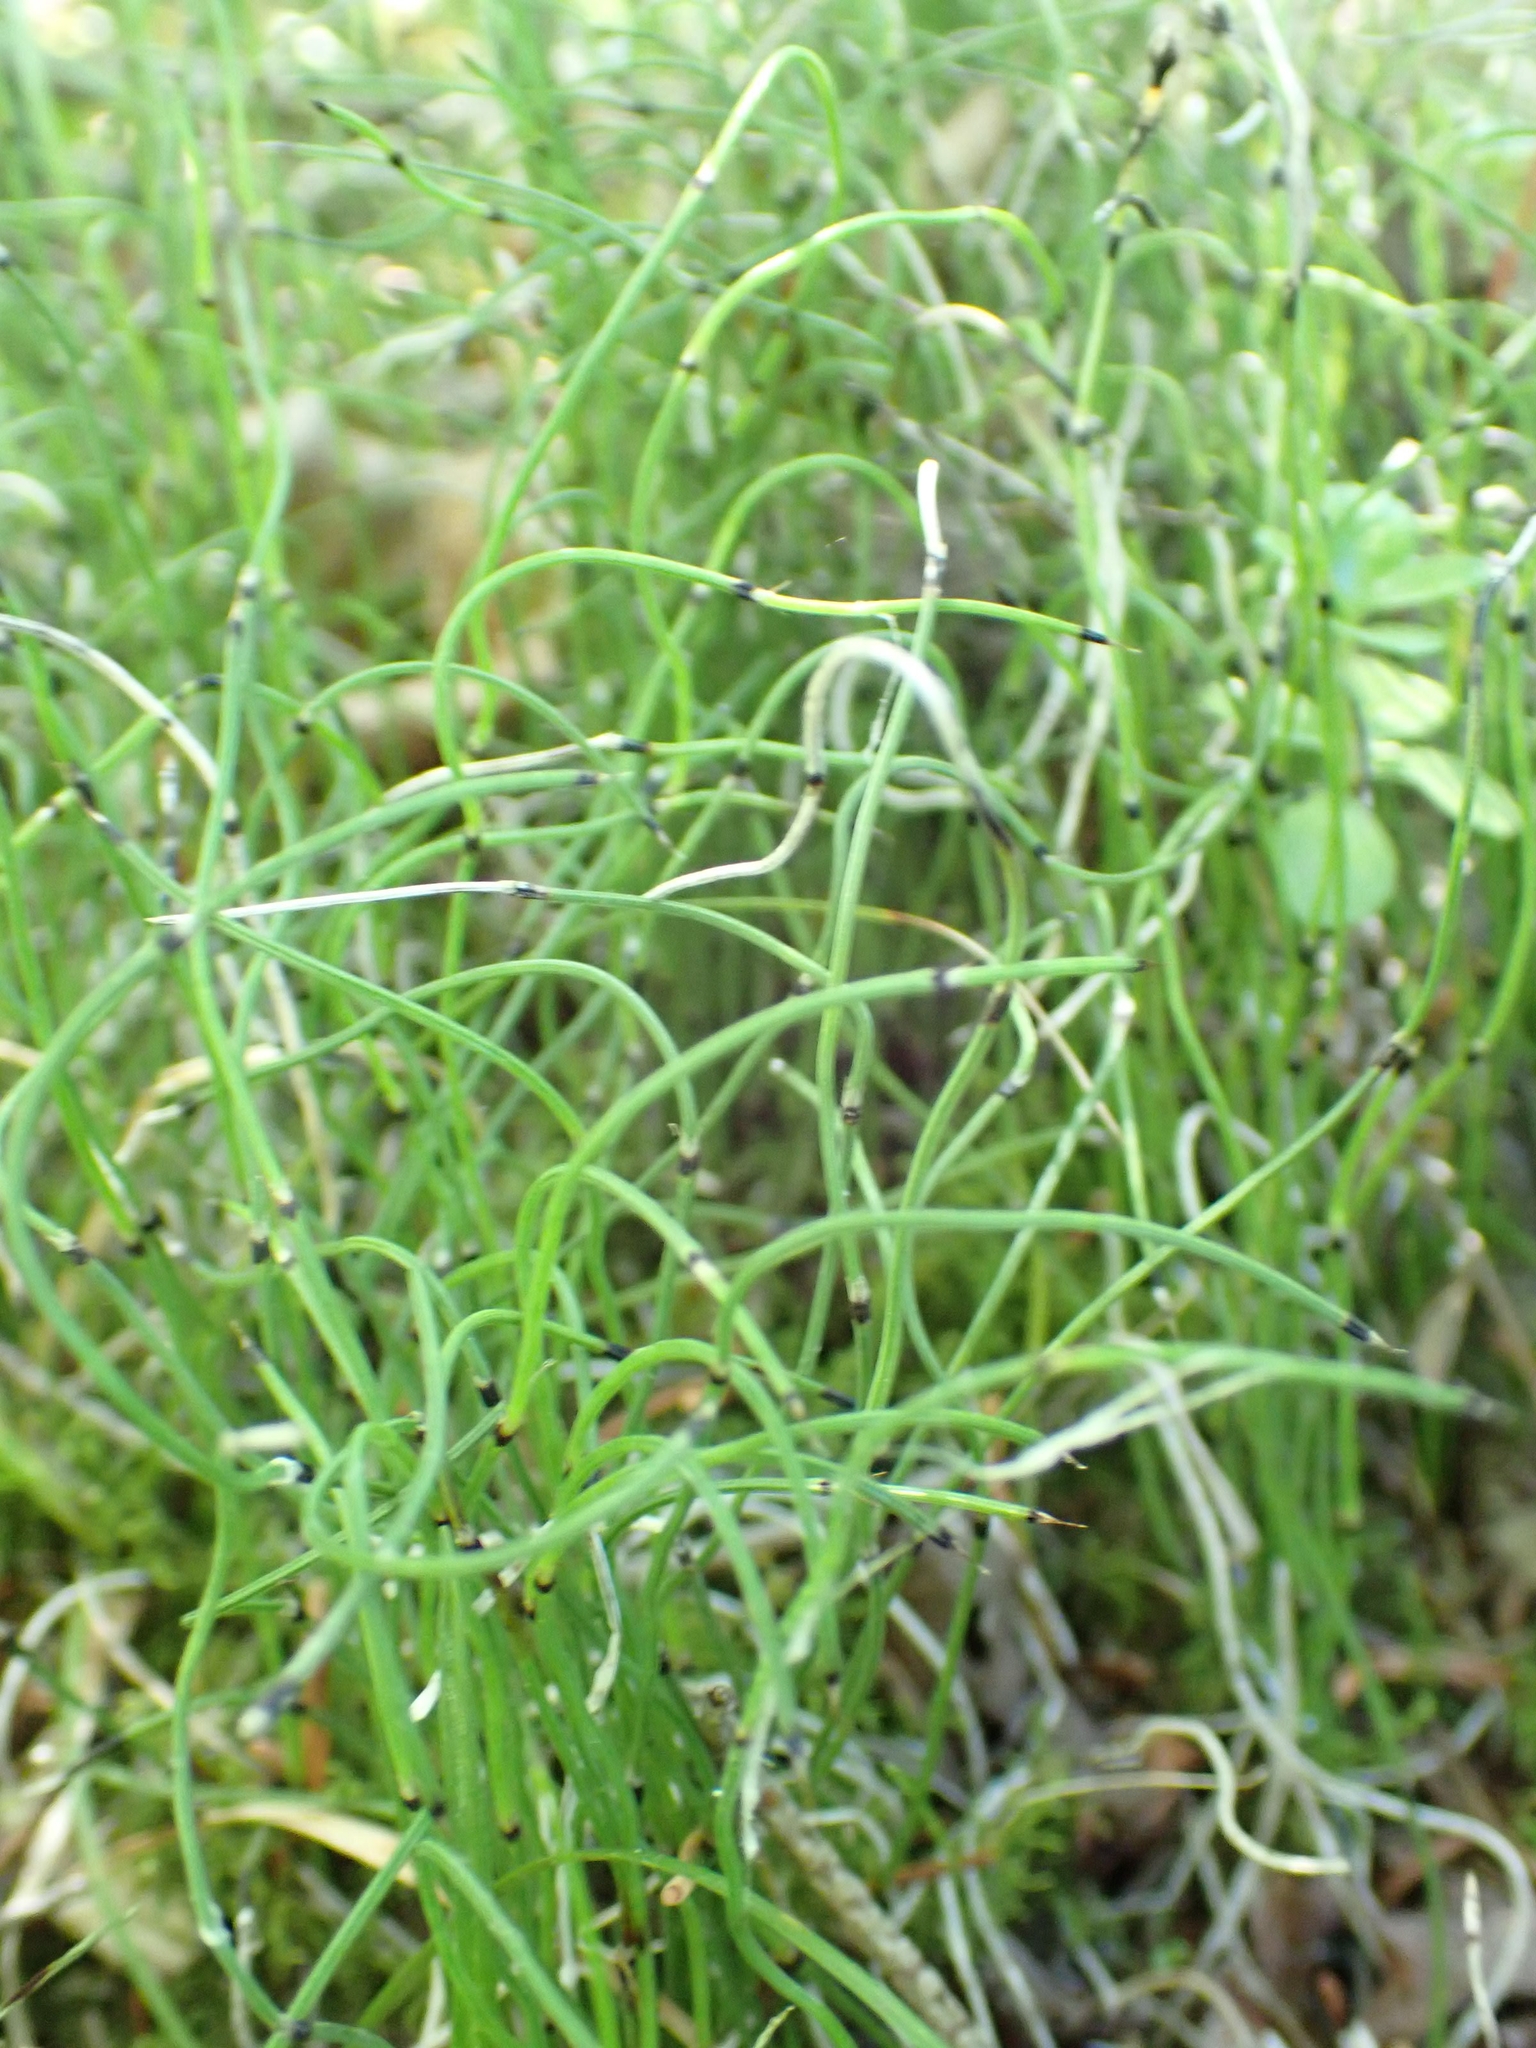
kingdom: Plantae
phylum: Tracheophyta
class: Polypodiopsida
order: Equisetales
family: Equisetaceae
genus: Equisetum
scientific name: Equisetum scirpoides
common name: Delicate horsetail
